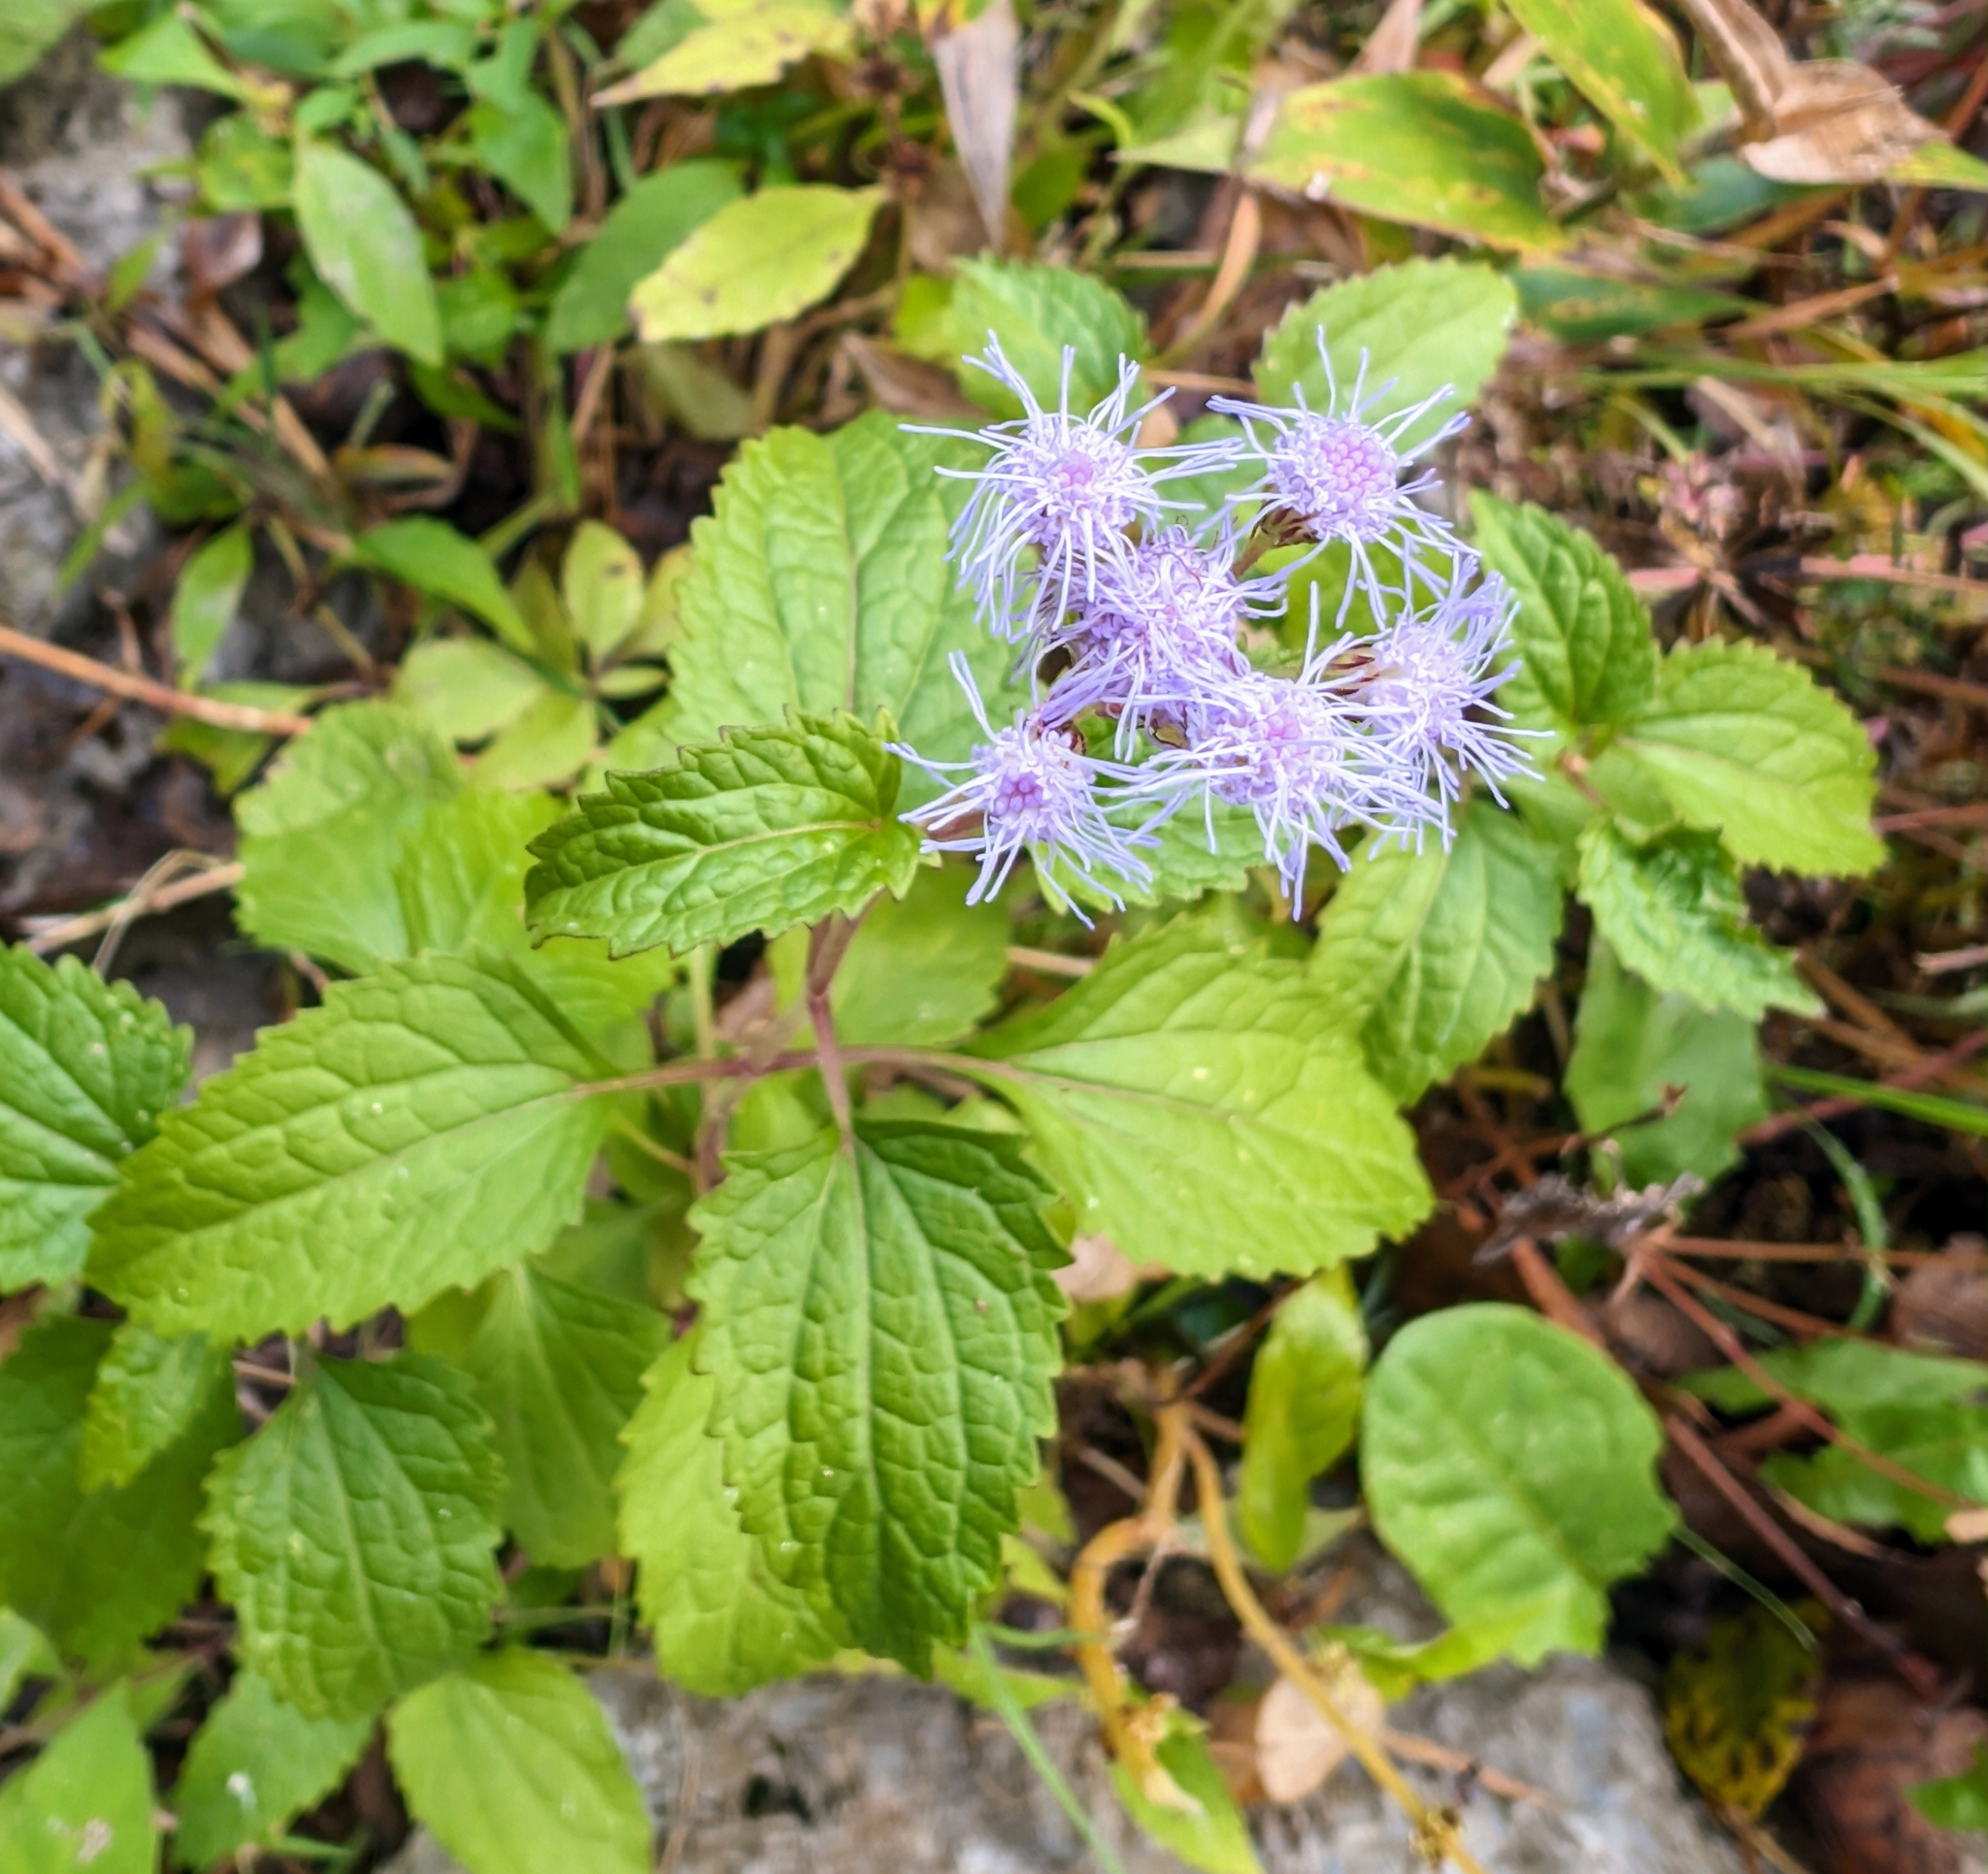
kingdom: Plantae
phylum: Tracheophyta
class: Magnoliopsida
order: Asterales
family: Asteraceae
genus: Conoclinium
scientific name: Conoclinium coelestinum
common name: Blue mistflower
